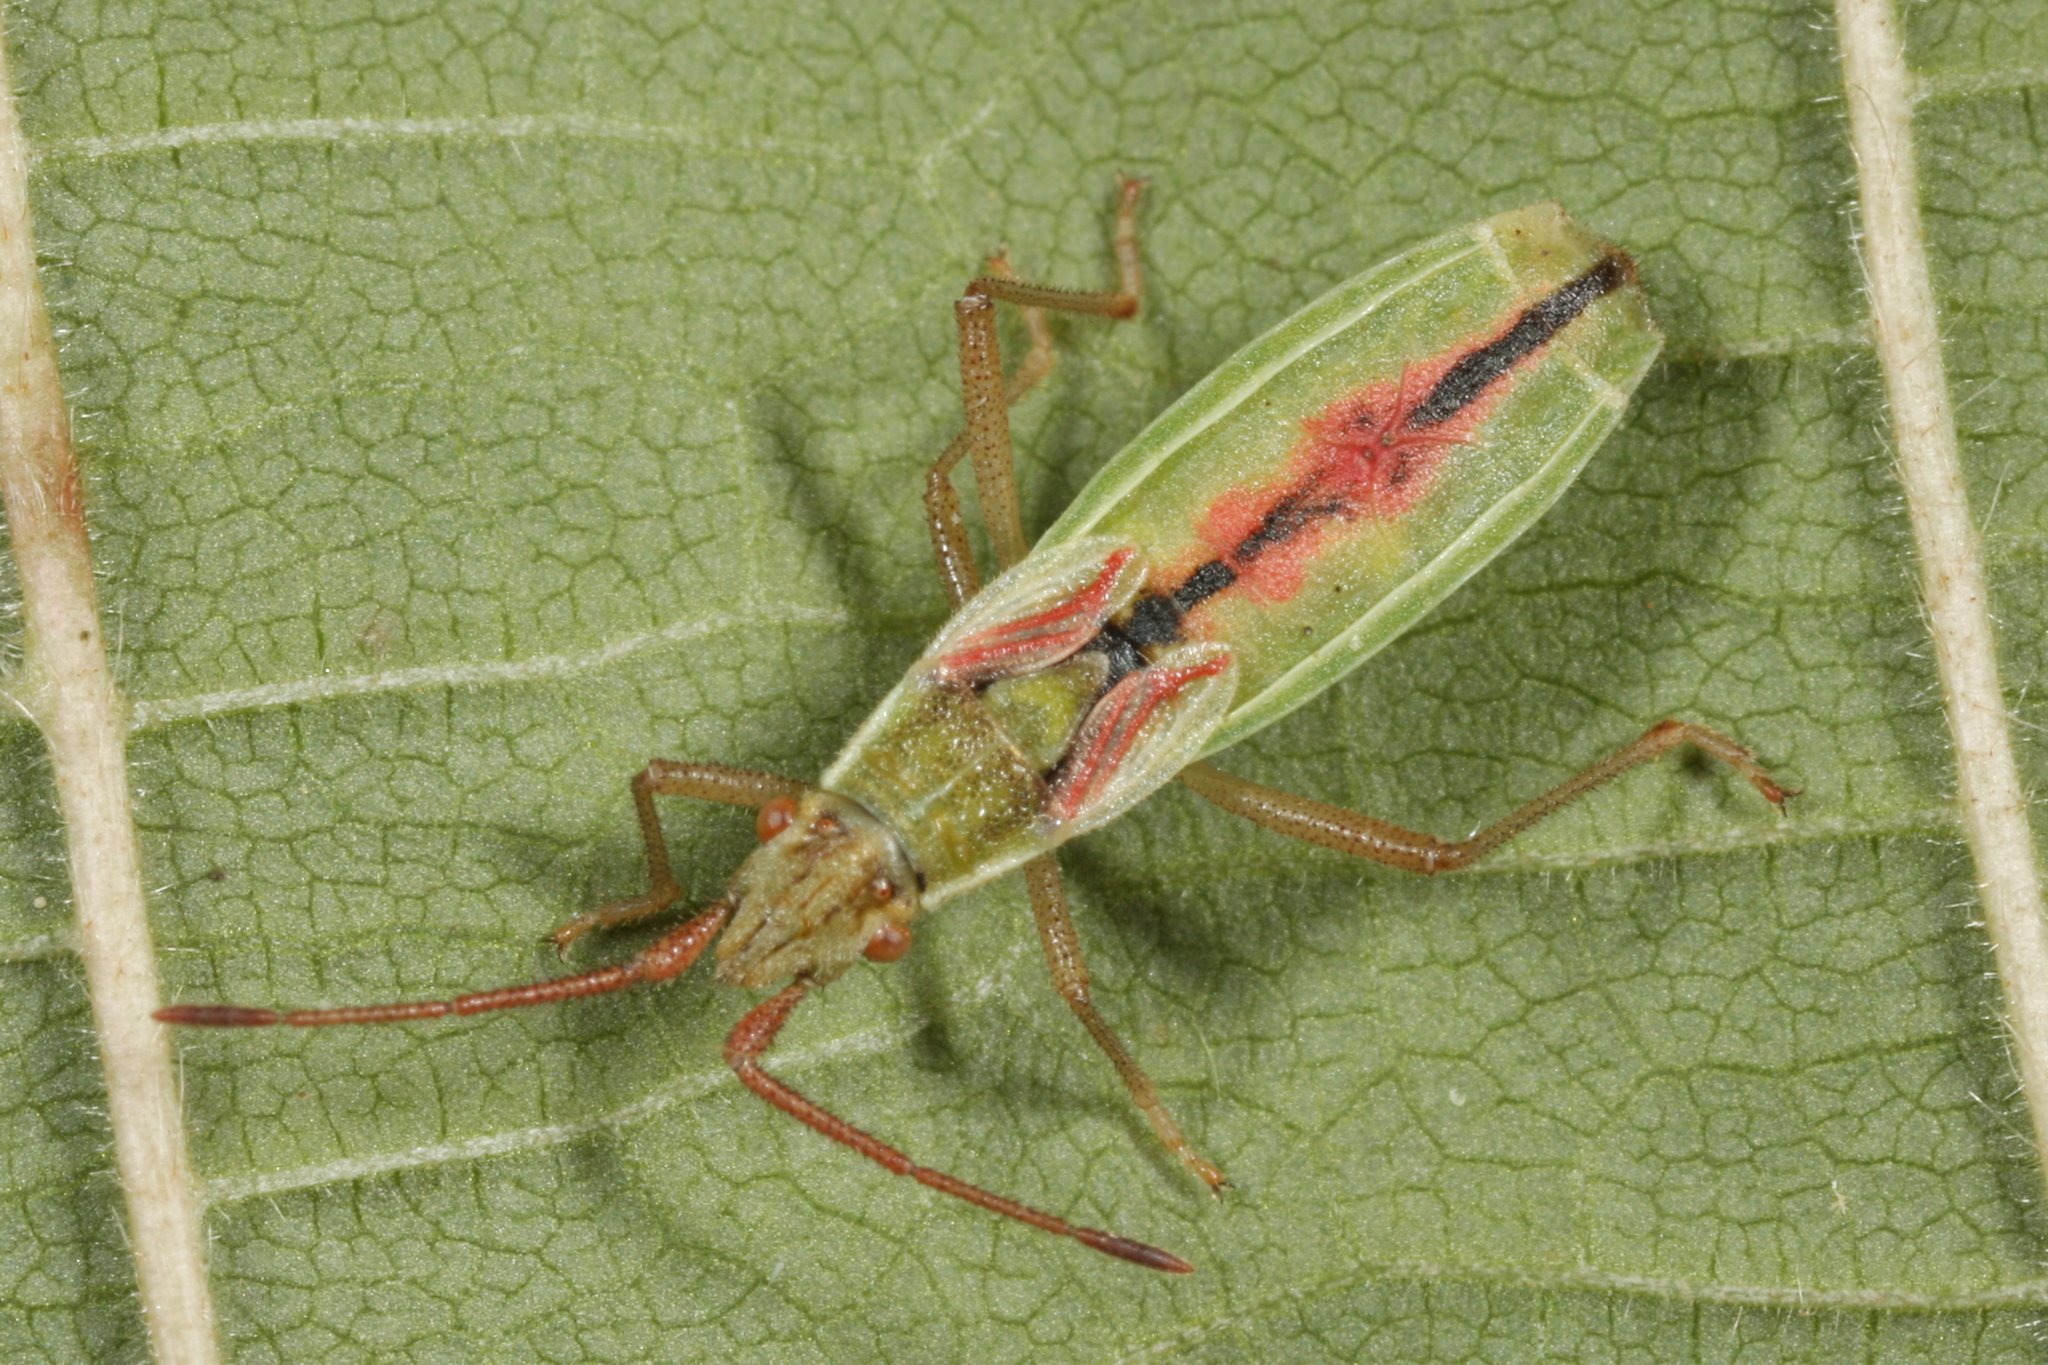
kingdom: Animalia
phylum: Arthropoda
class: Insecta
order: Hemiptera
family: Rhopalidae
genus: Myrmus
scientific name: Myrmus miriformis
